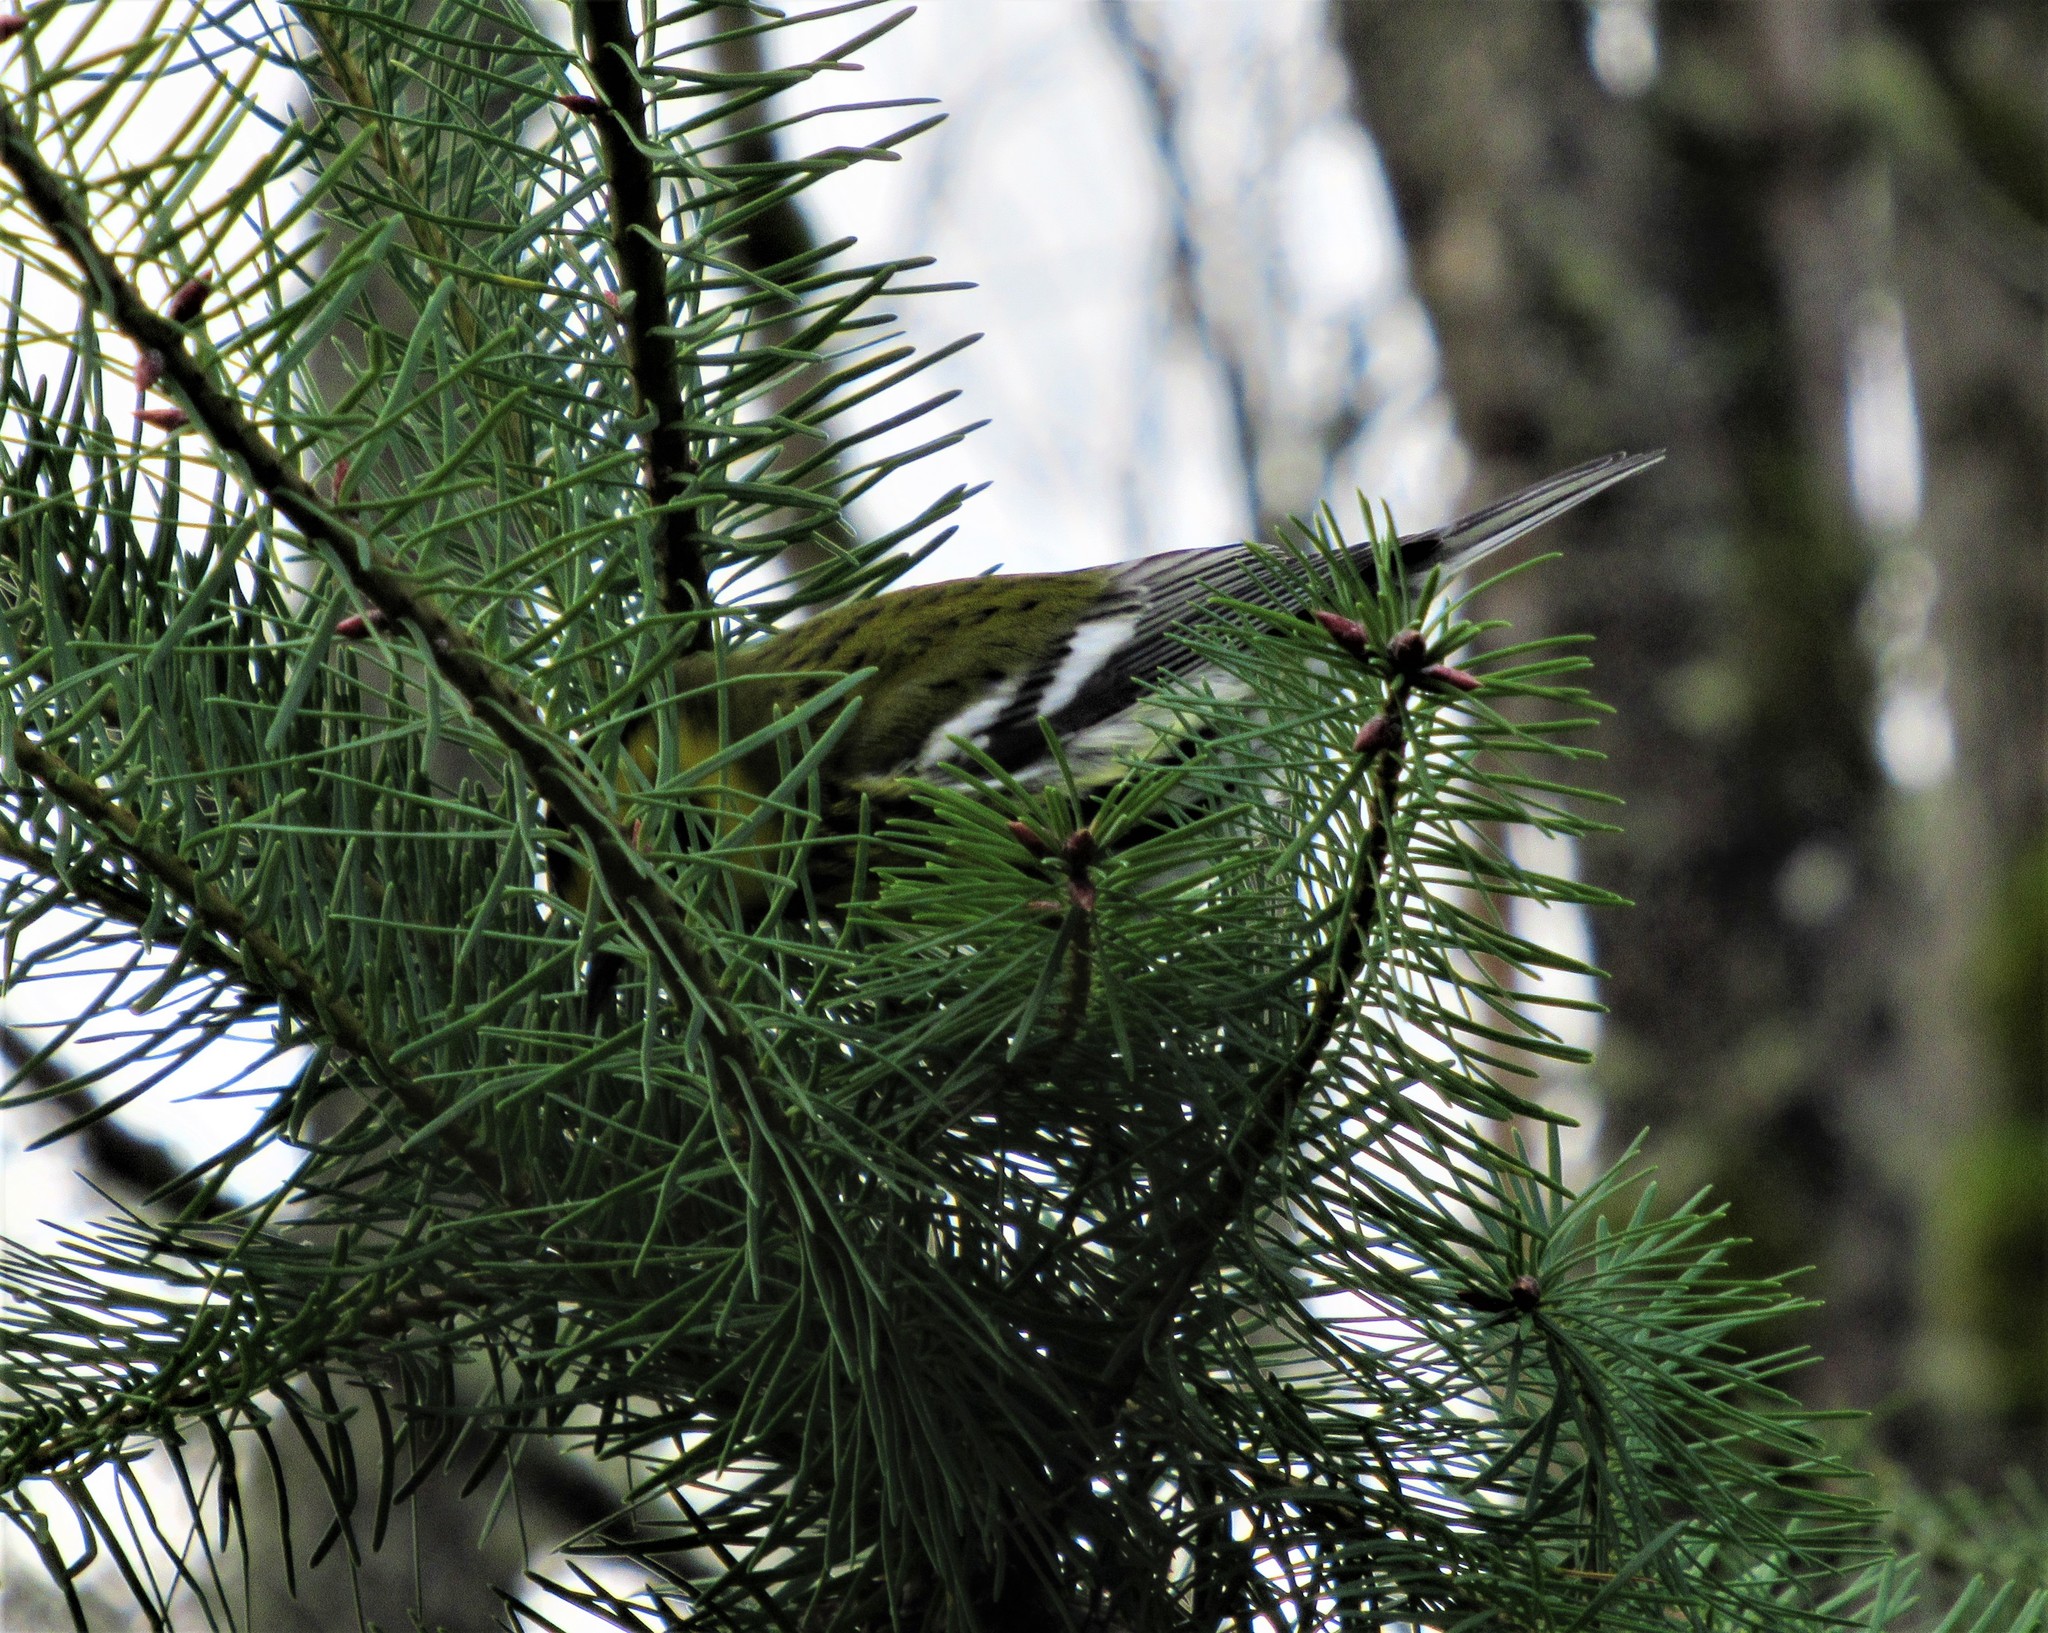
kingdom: Animalia
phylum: Chordata
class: Aves
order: Passeriformes
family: Parulidae
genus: Setophaga
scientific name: Setophaga townsendi
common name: Townsend's warbler
